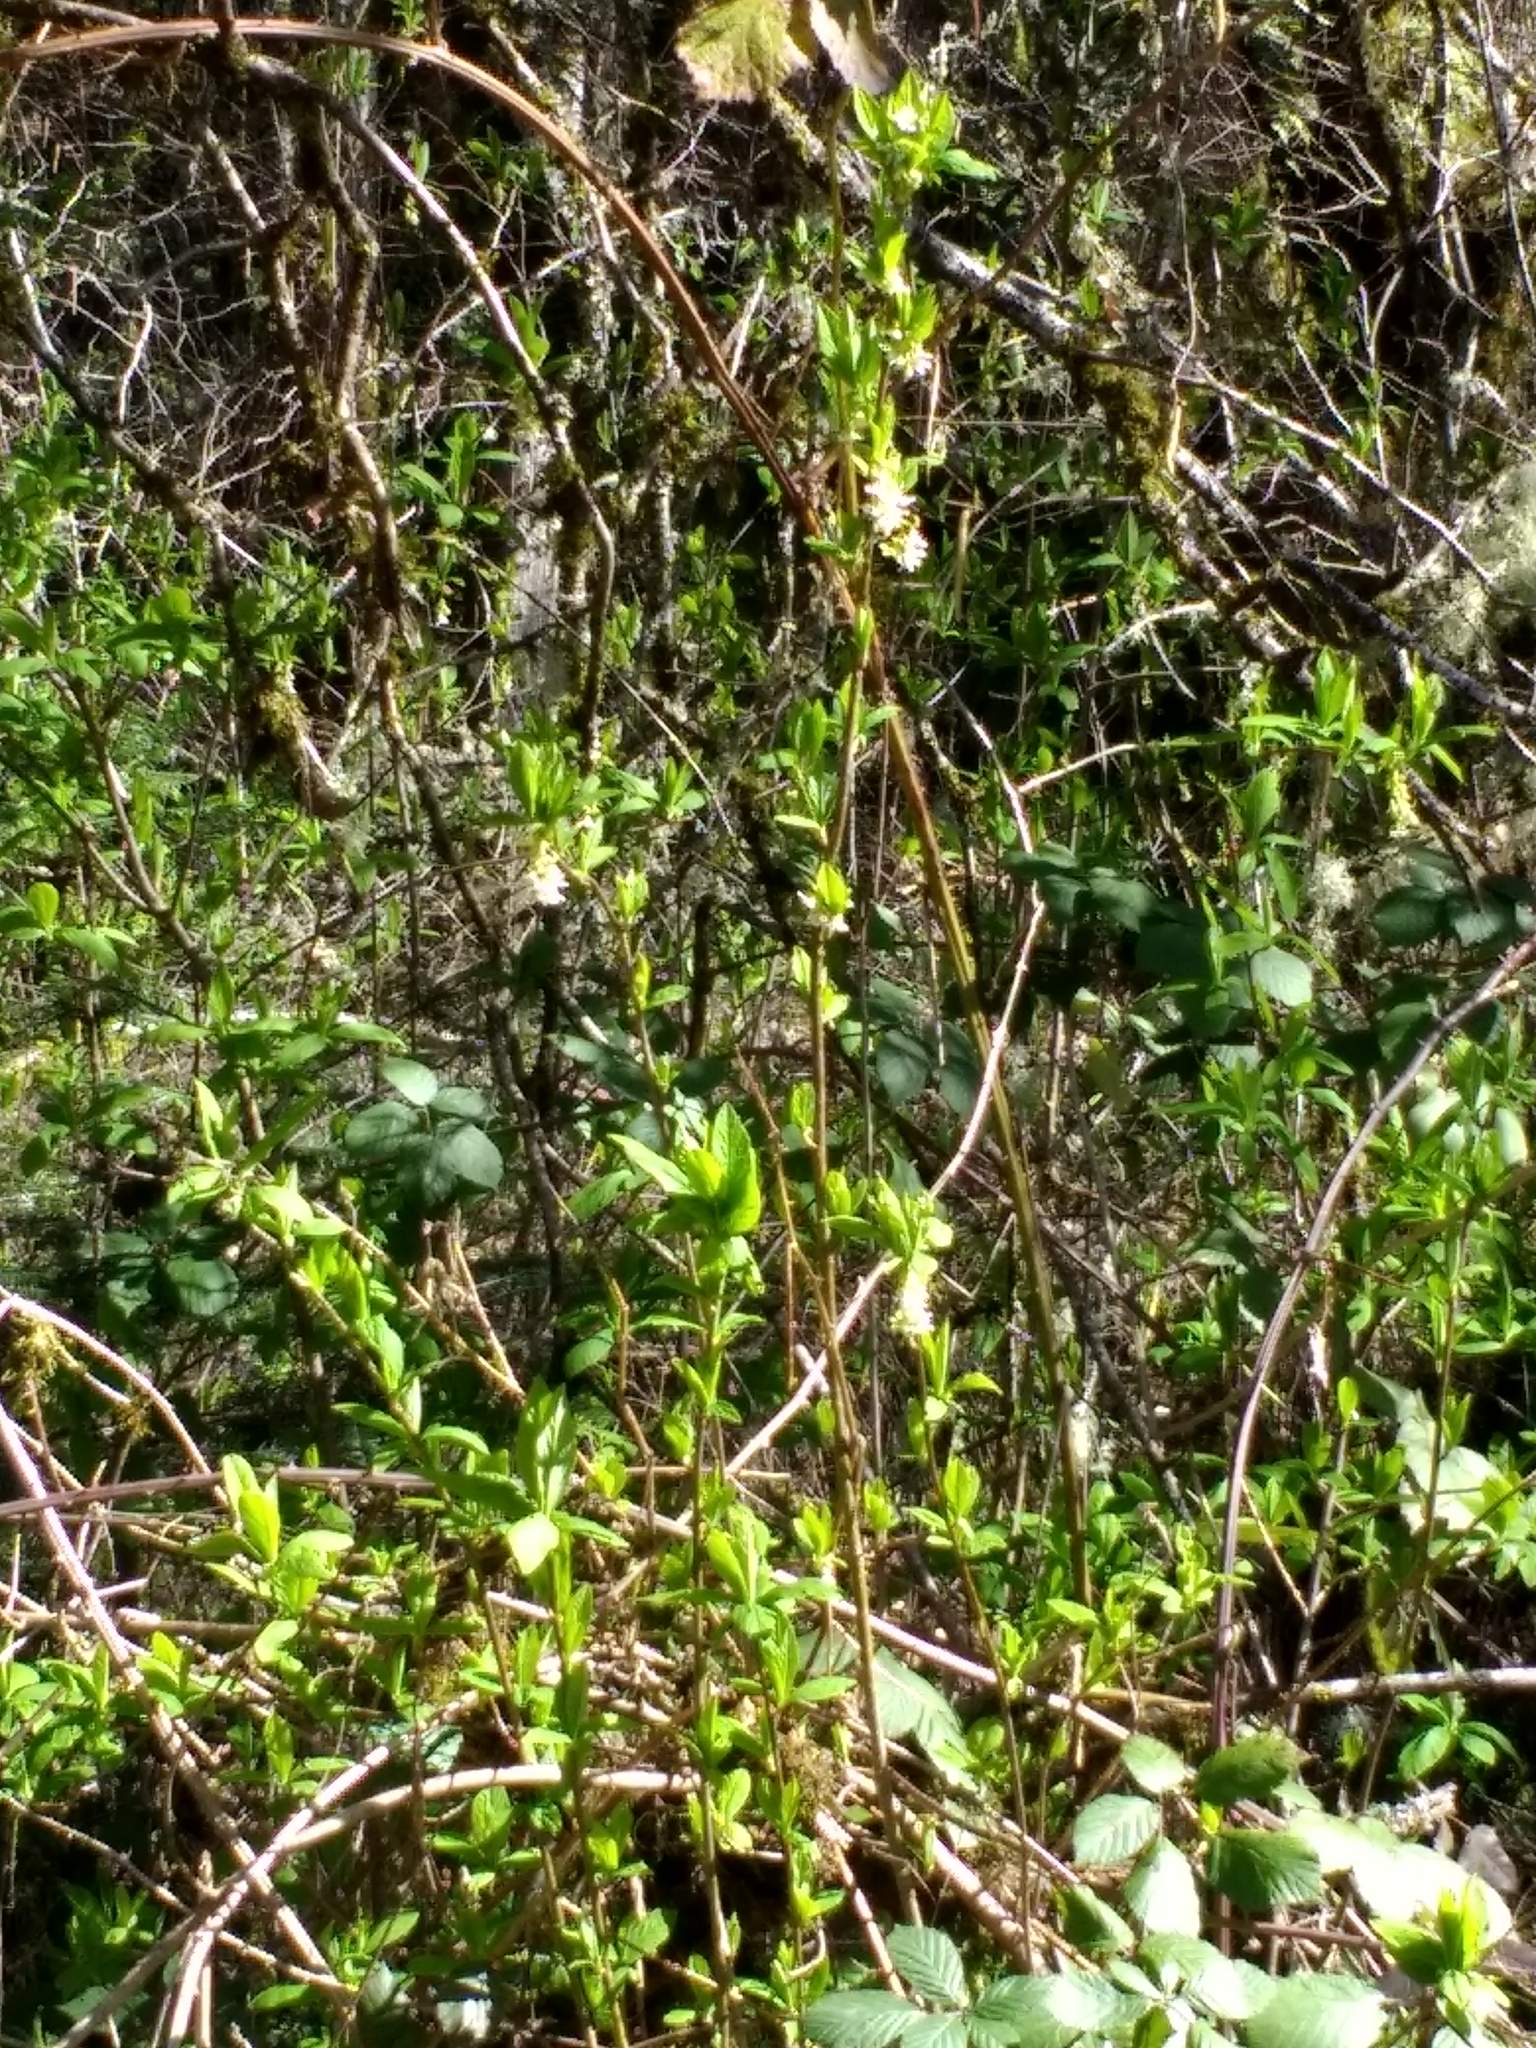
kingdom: Plantae
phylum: Tracheophyta
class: Magnoliopsida
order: Rosales
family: Rosaceae
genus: Oemleria
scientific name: Oemleria cerasiformis
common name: Osoberry
